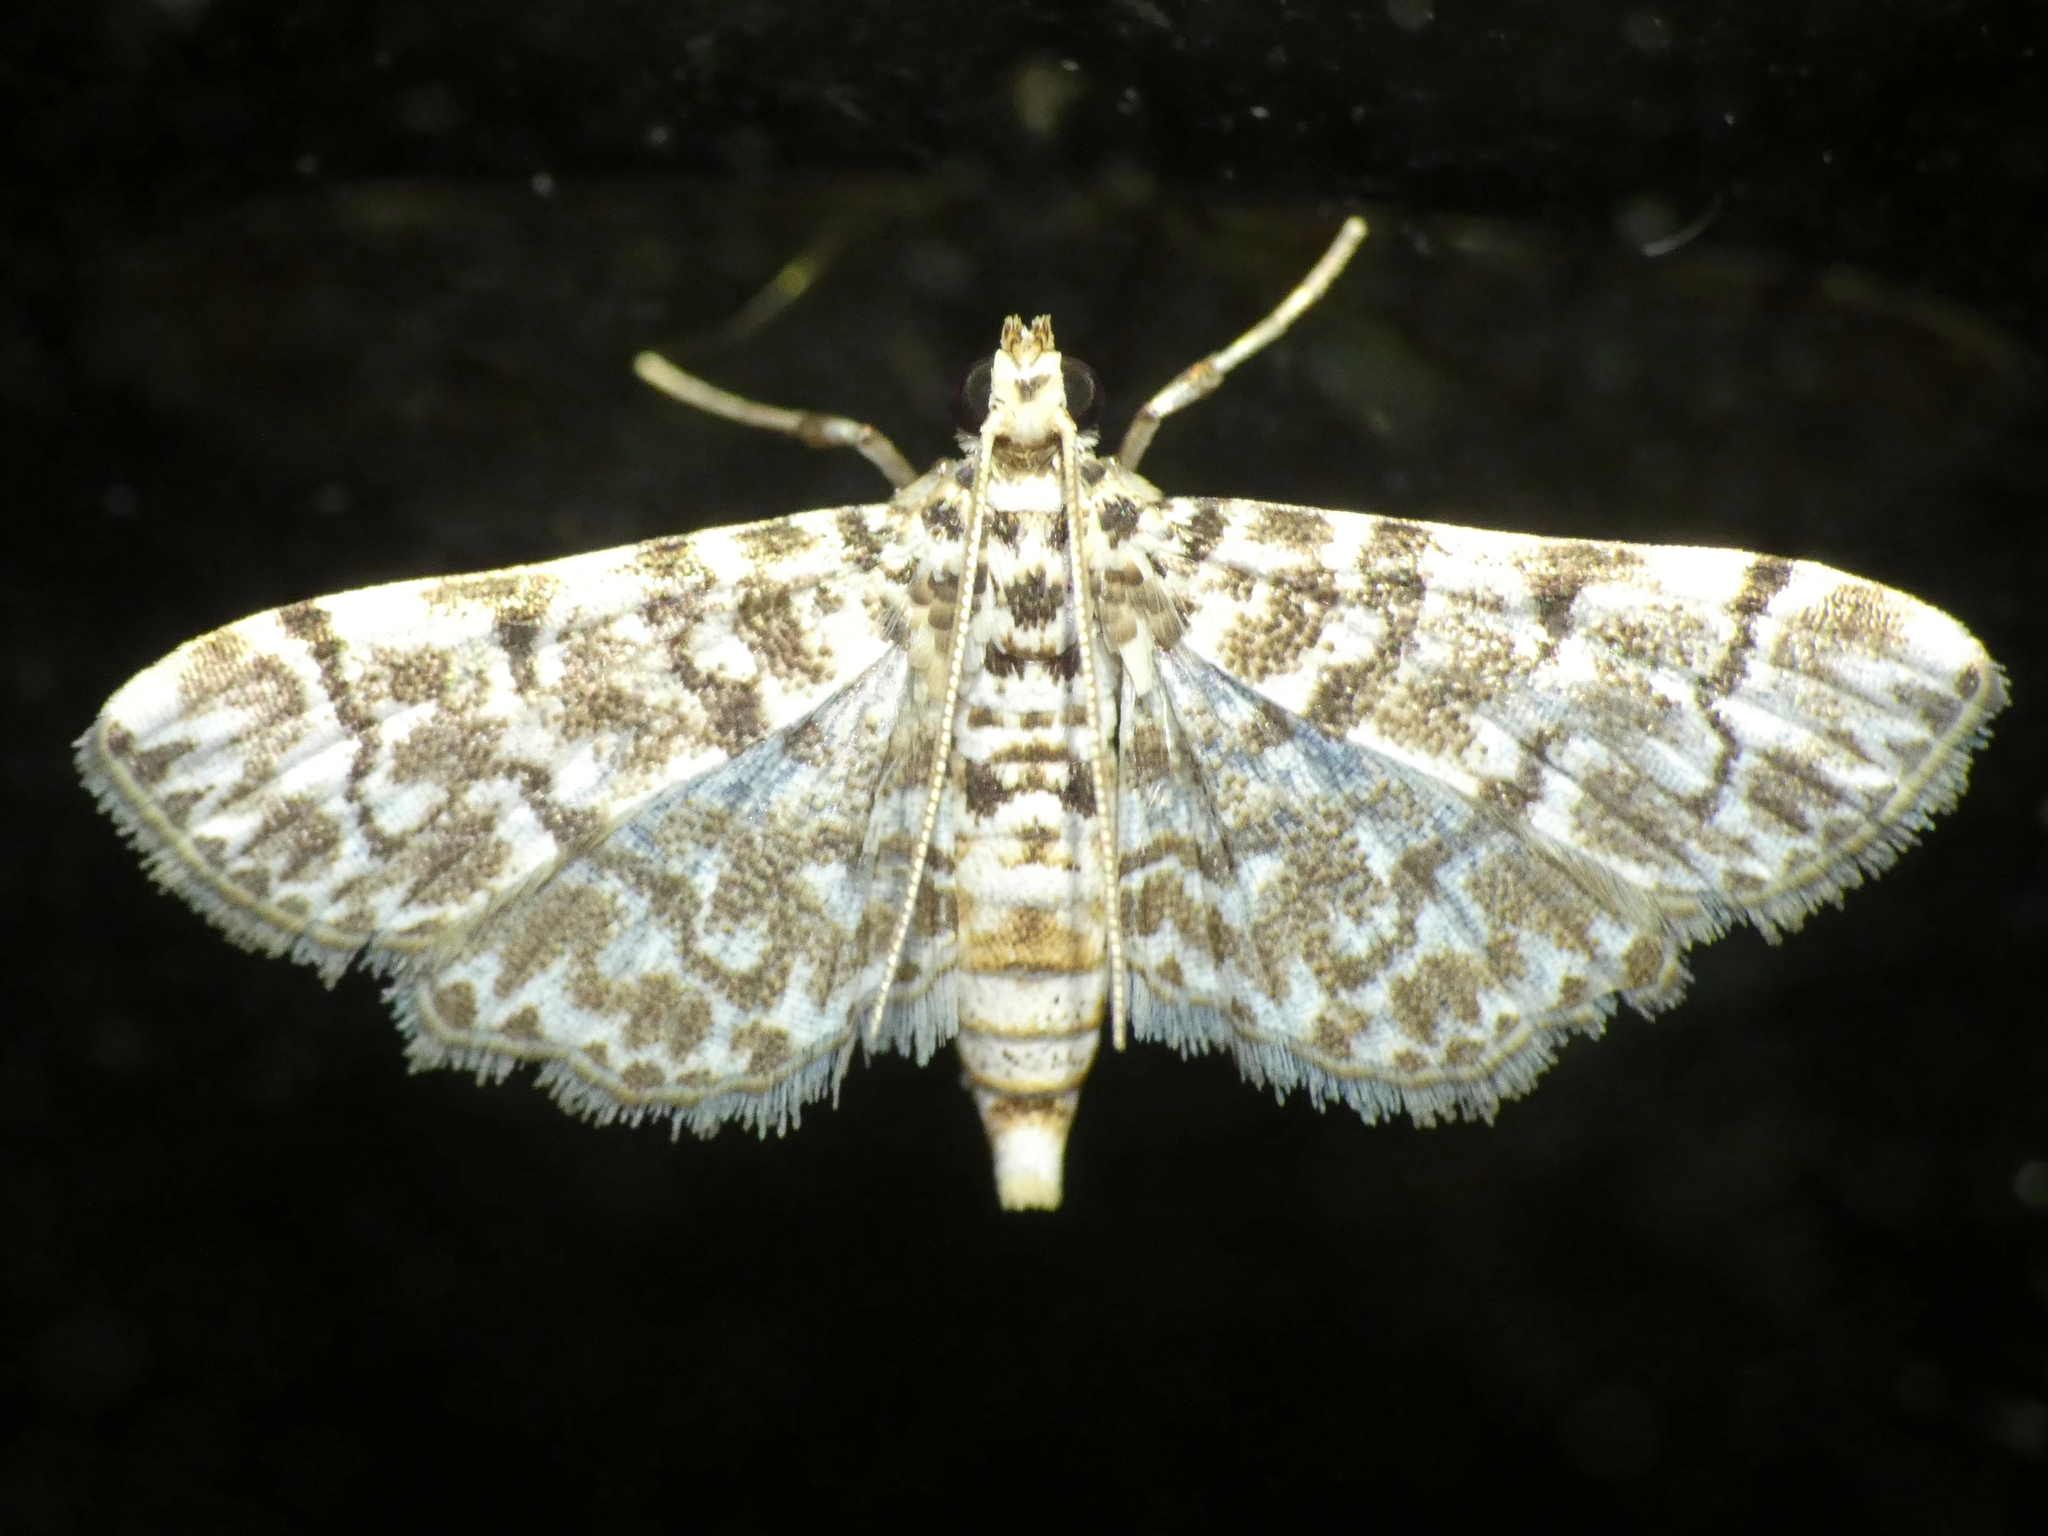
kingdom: Animalia
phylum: Arthropoda
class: Insecta
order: Lepidoptera
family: Crambidae
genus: Metoeca
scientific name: Metoeca foedalis
